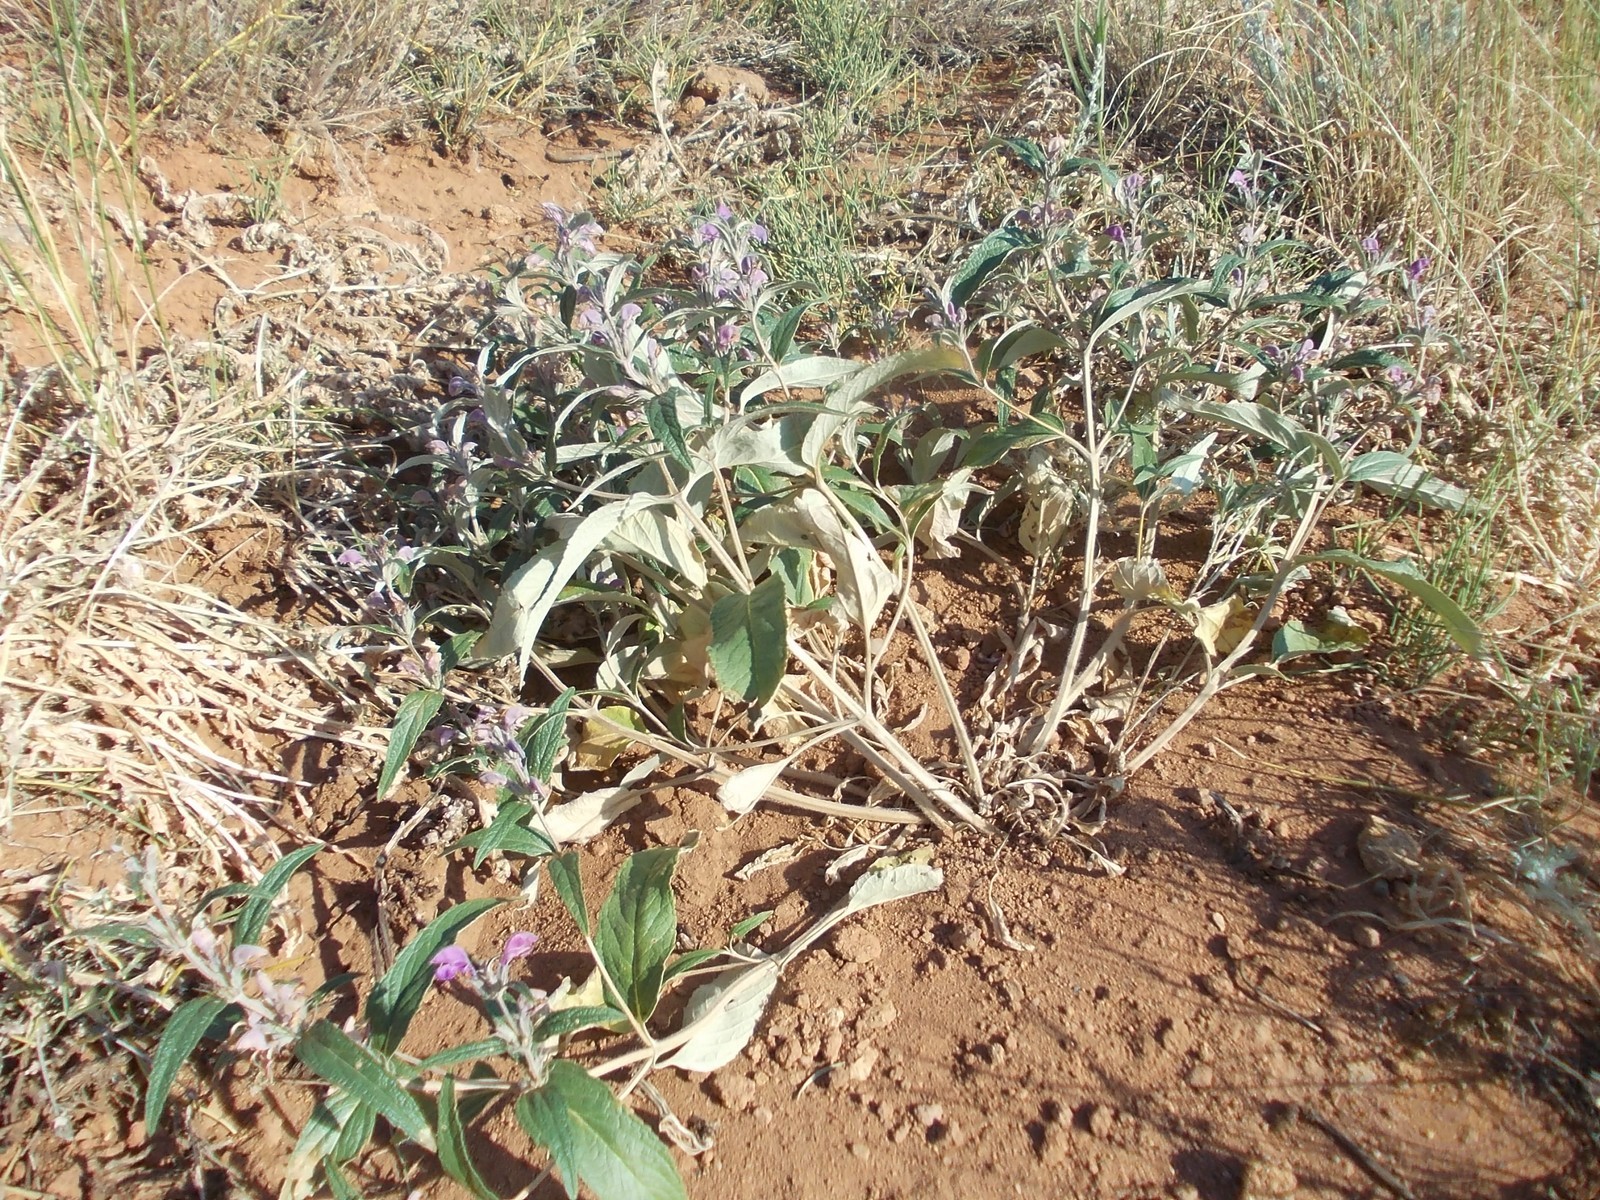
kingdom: Plantae
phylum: Tracheophyta
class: Magnoliopsida
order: Lamiales
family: Lamiaceae
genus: Phlomis
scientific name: Phlomis herba-venti
